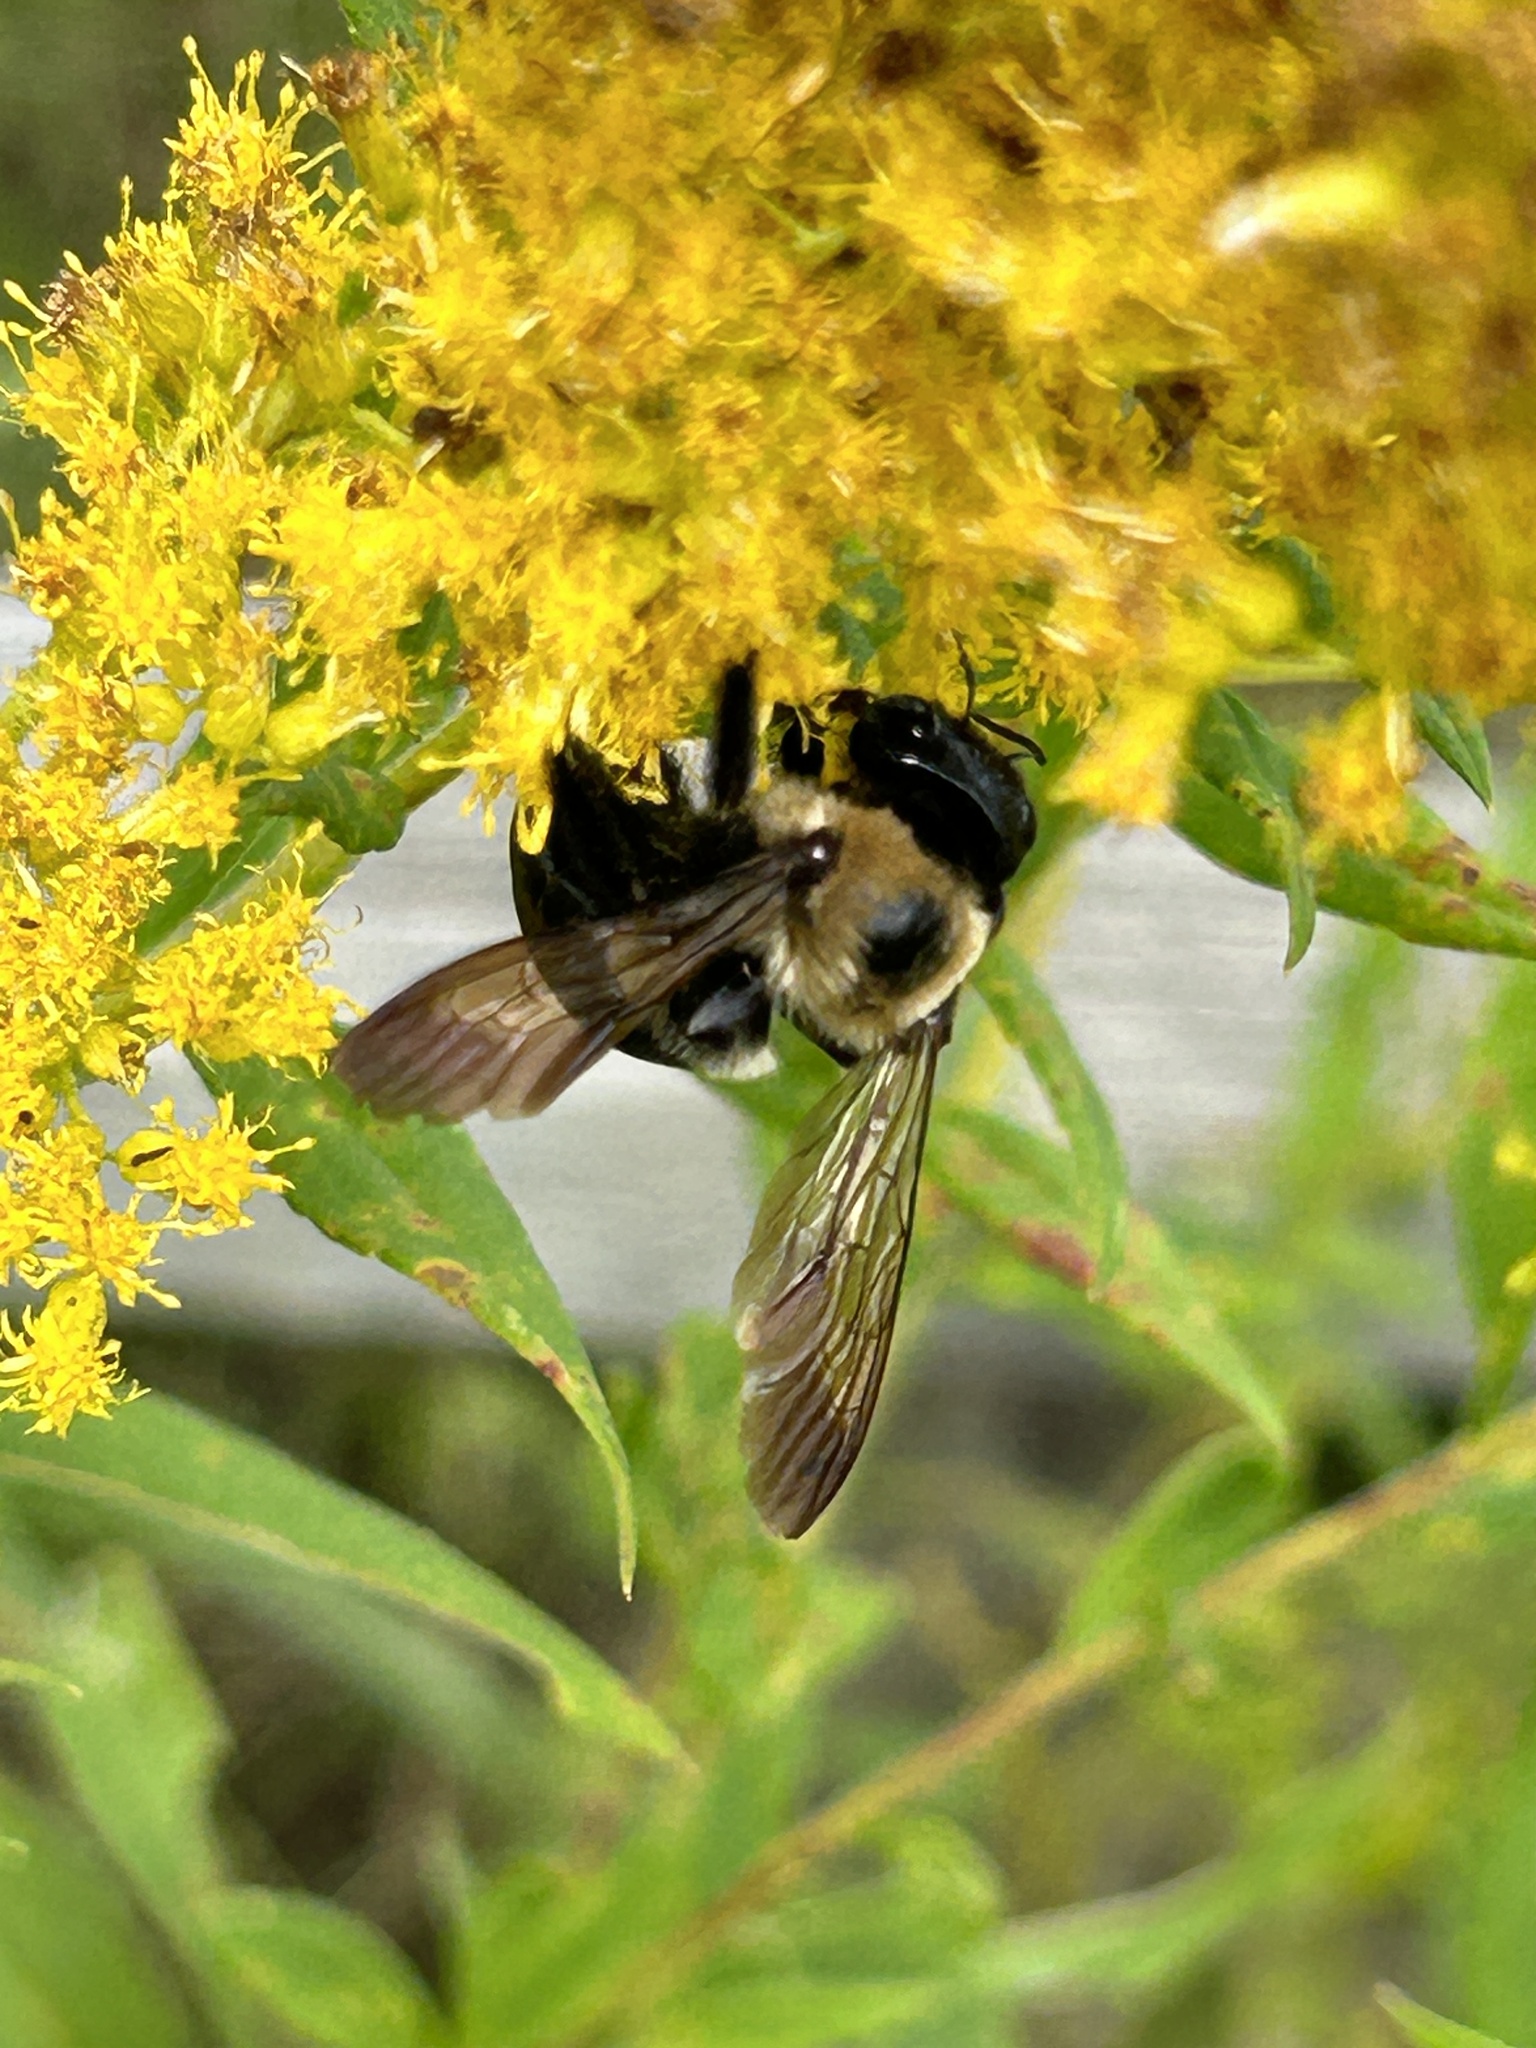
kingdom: Animalia
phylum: Arthropoda
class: Insecta
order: Hymenoptera
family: Apidae
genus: Xylocopa
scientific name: Xylocopa virginica
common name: Carpenter bee
